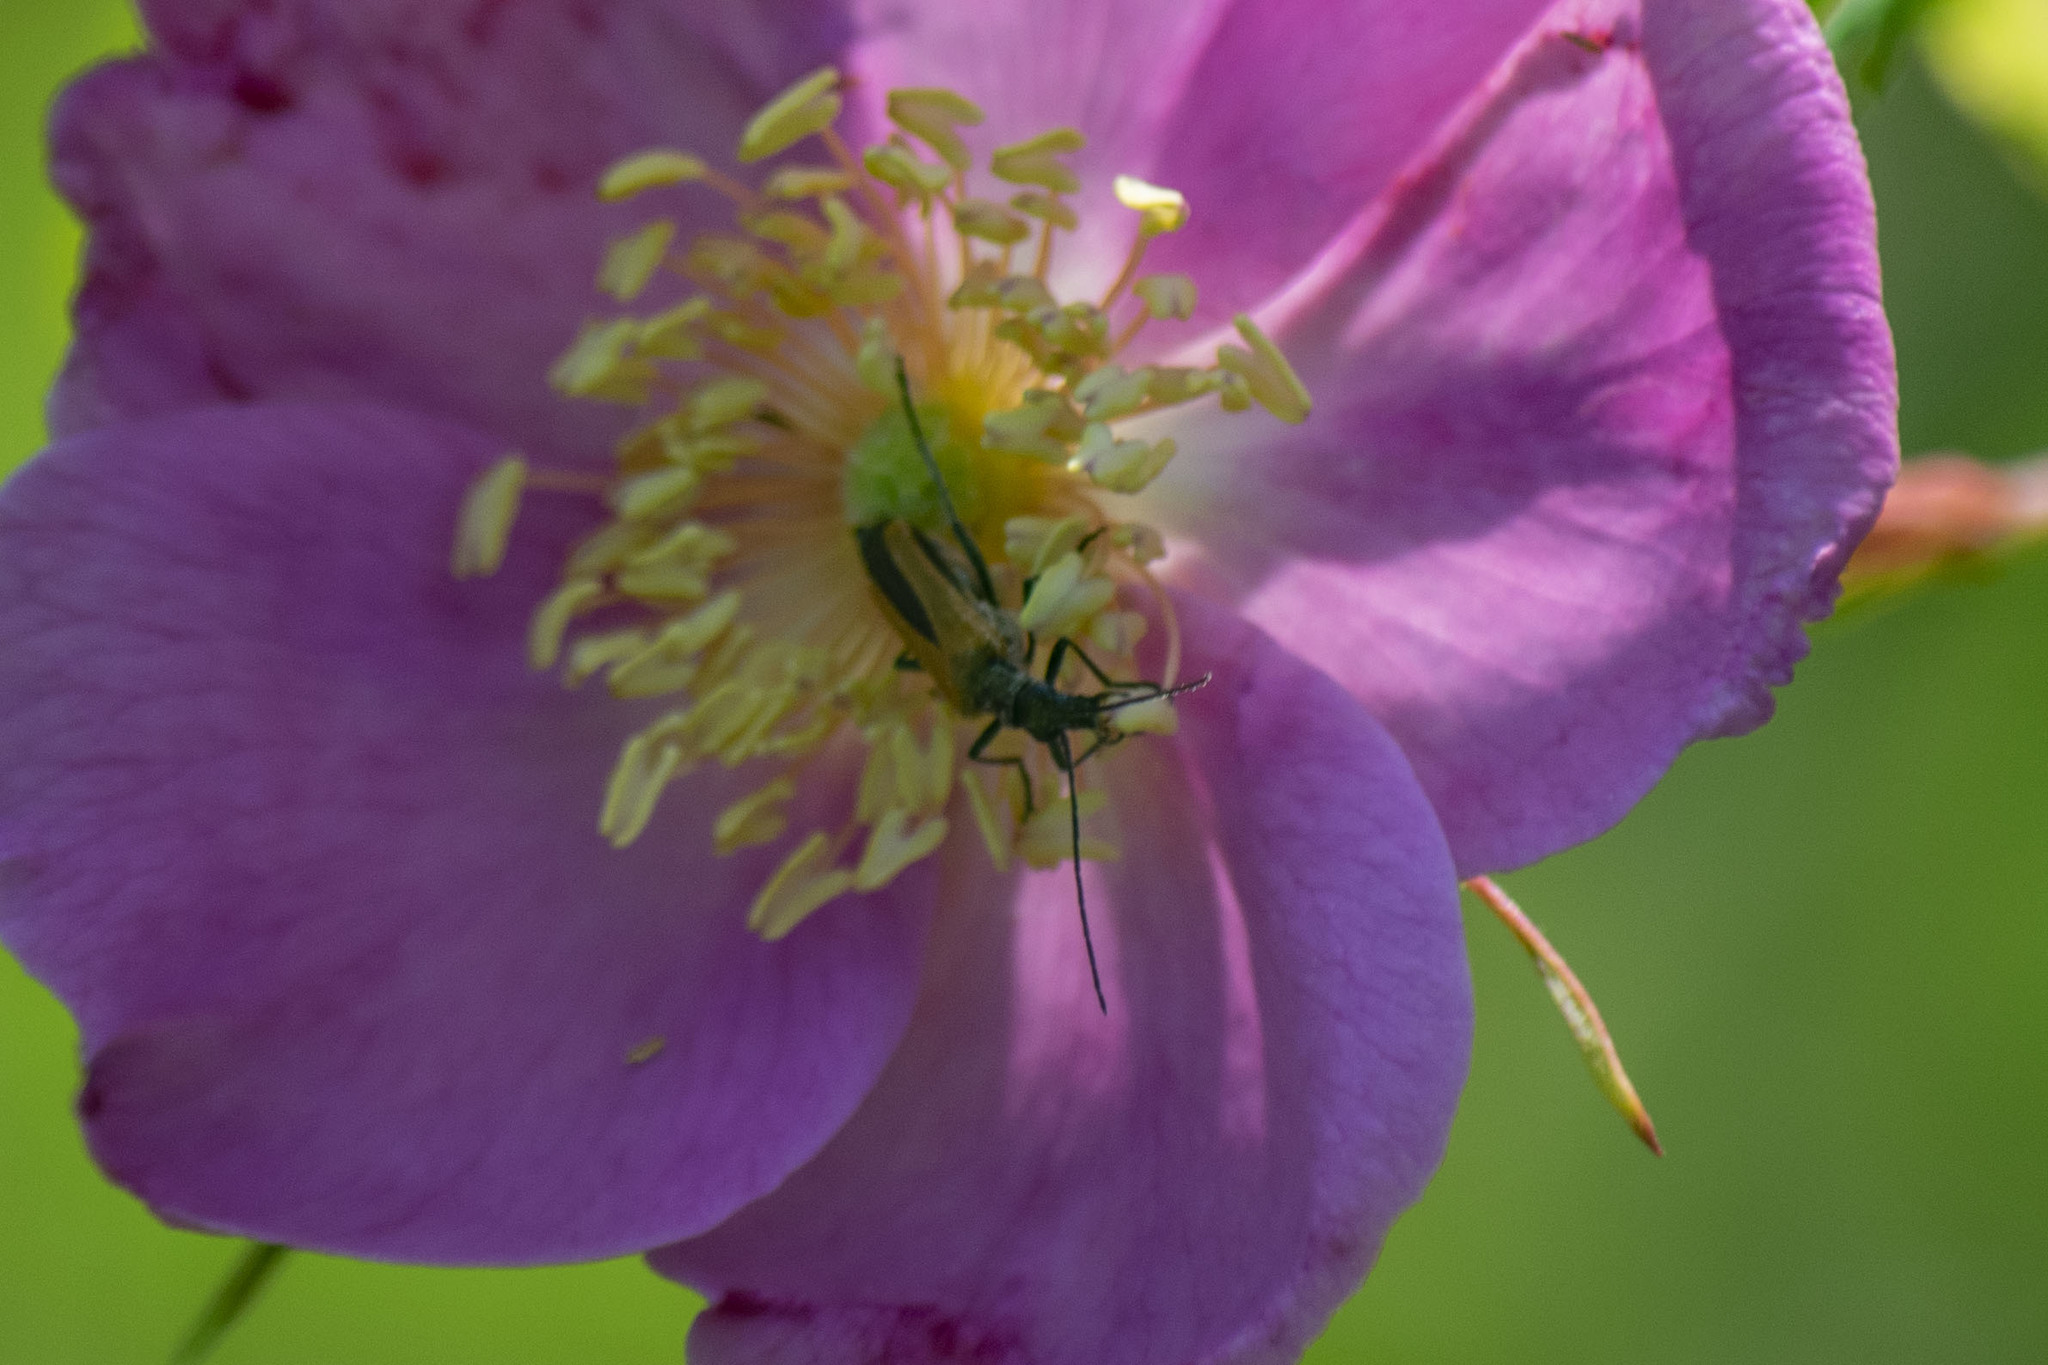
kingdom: Animalia
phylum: Arthropoda
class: Insecta
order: Coleoptera
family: Oedemeridae
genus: Oedemera
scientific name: Oedemera femorata
